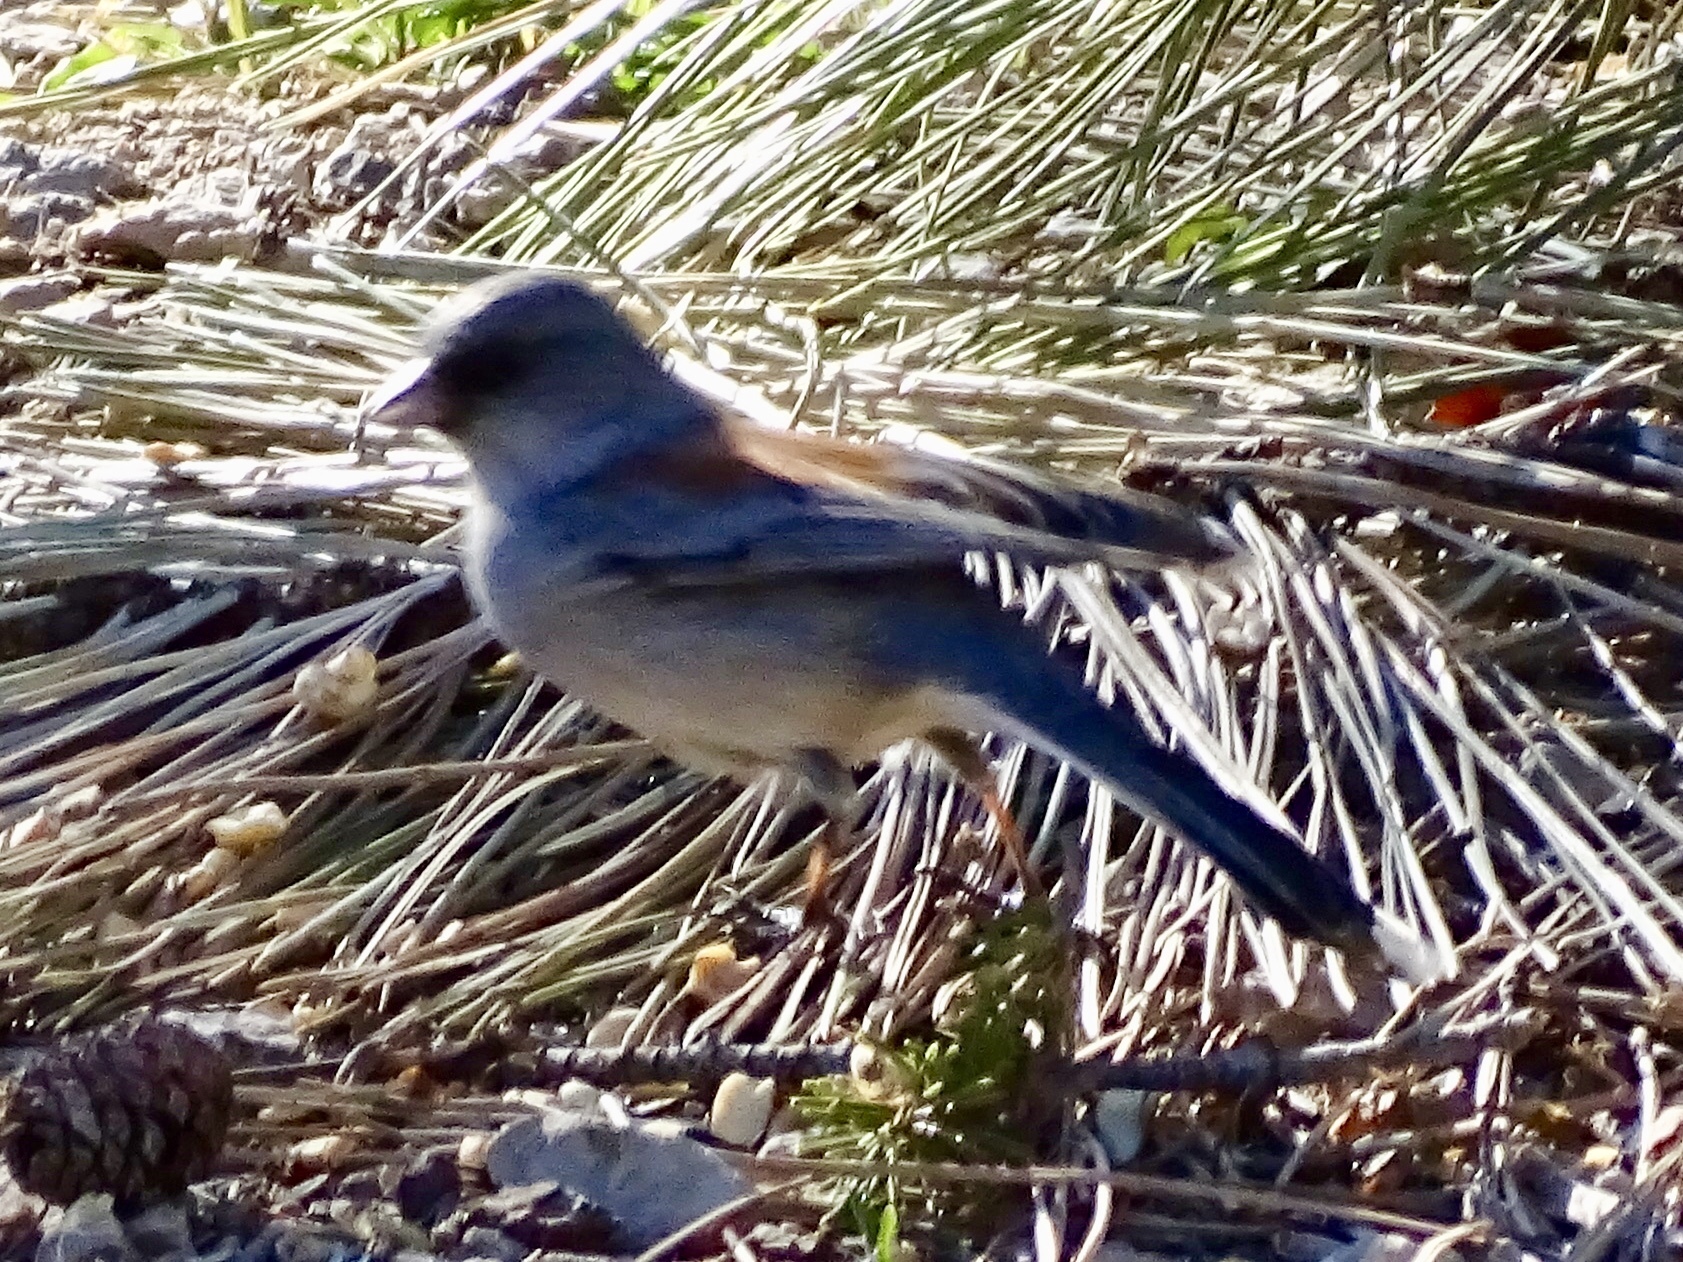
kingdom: Animalia
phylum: Chordata
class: Aves
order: Passeriformes
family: Passerellidae
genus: Junco
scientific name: Junco hyemalis
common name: Dark-eyed junco
